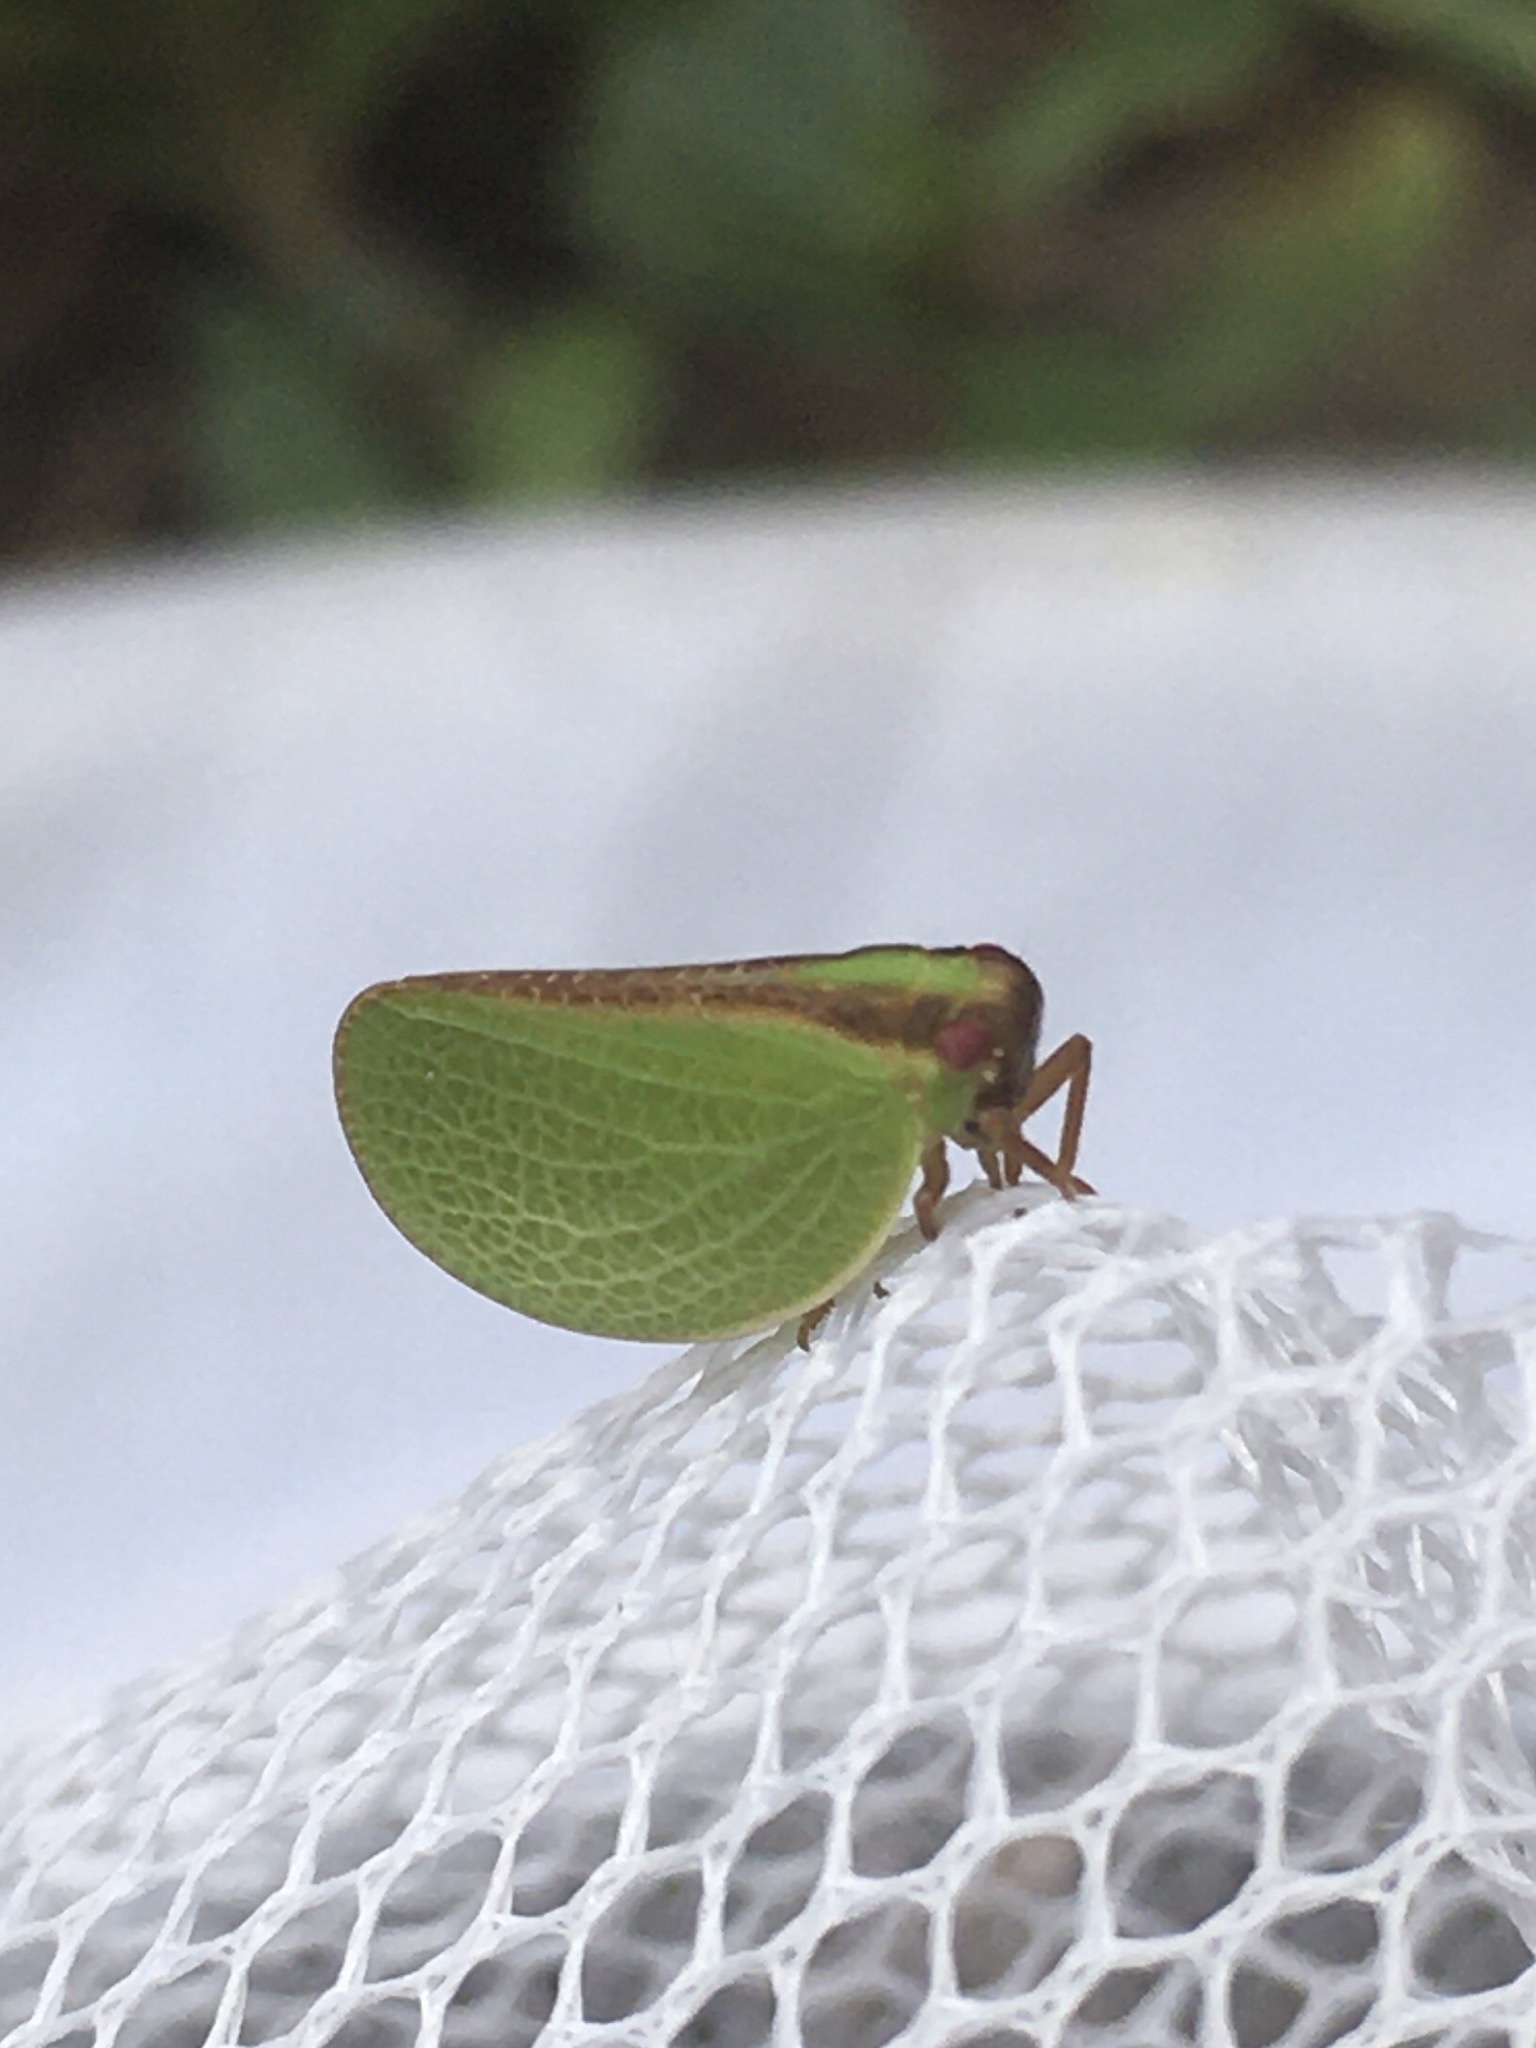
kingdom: Animalia
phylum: Arthropoda
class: Insecta
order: Hemiptera
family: Acanaloniidae
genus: Acanalonia
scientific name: Acanalonia bivittata
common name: Two-striped planthopper
